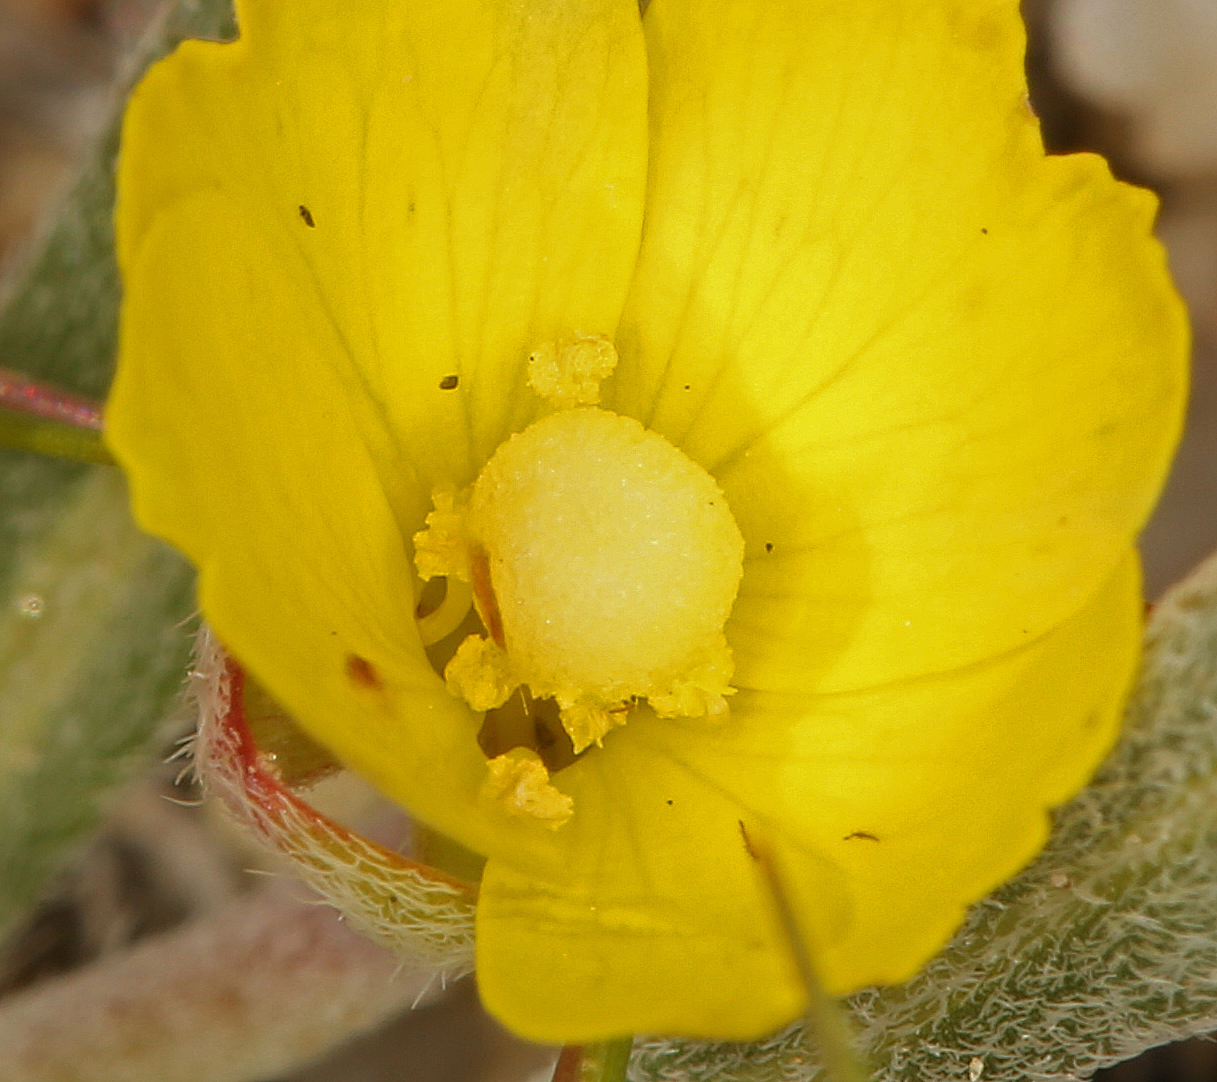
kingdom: Plantae
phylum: Tracheophyta
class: Magnoliopsida
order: Myrtales
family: Onagraceae
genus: Camissoniopsis
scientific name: Camissoniopsis pallida
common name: Paleyellow suncup
